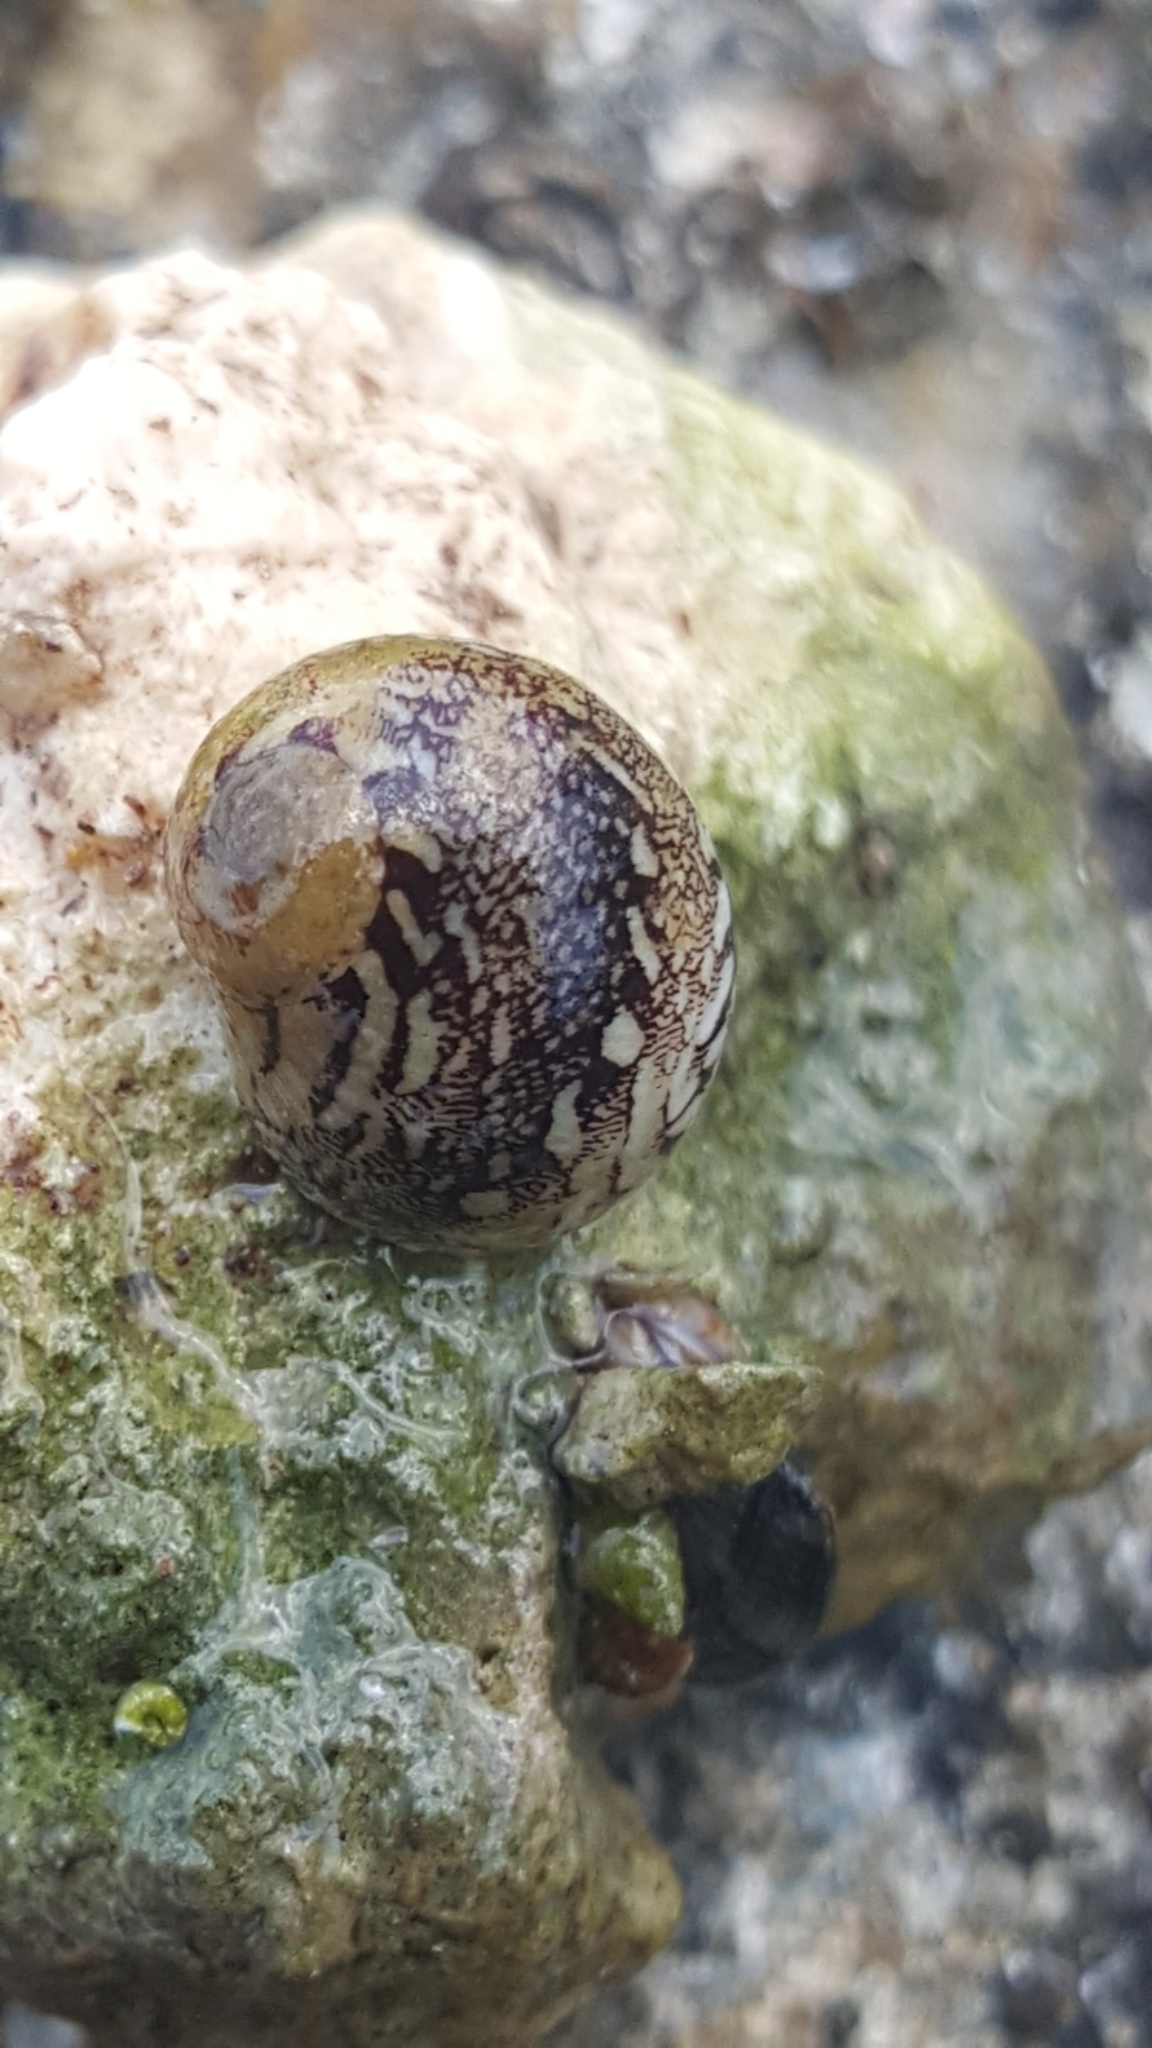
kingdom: Animalia
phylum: Mollusca
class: Gastropoda
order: Cycloneritida
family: Neritidae
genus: Vitta
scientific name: Vitta virginea
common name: Virgin nerite
